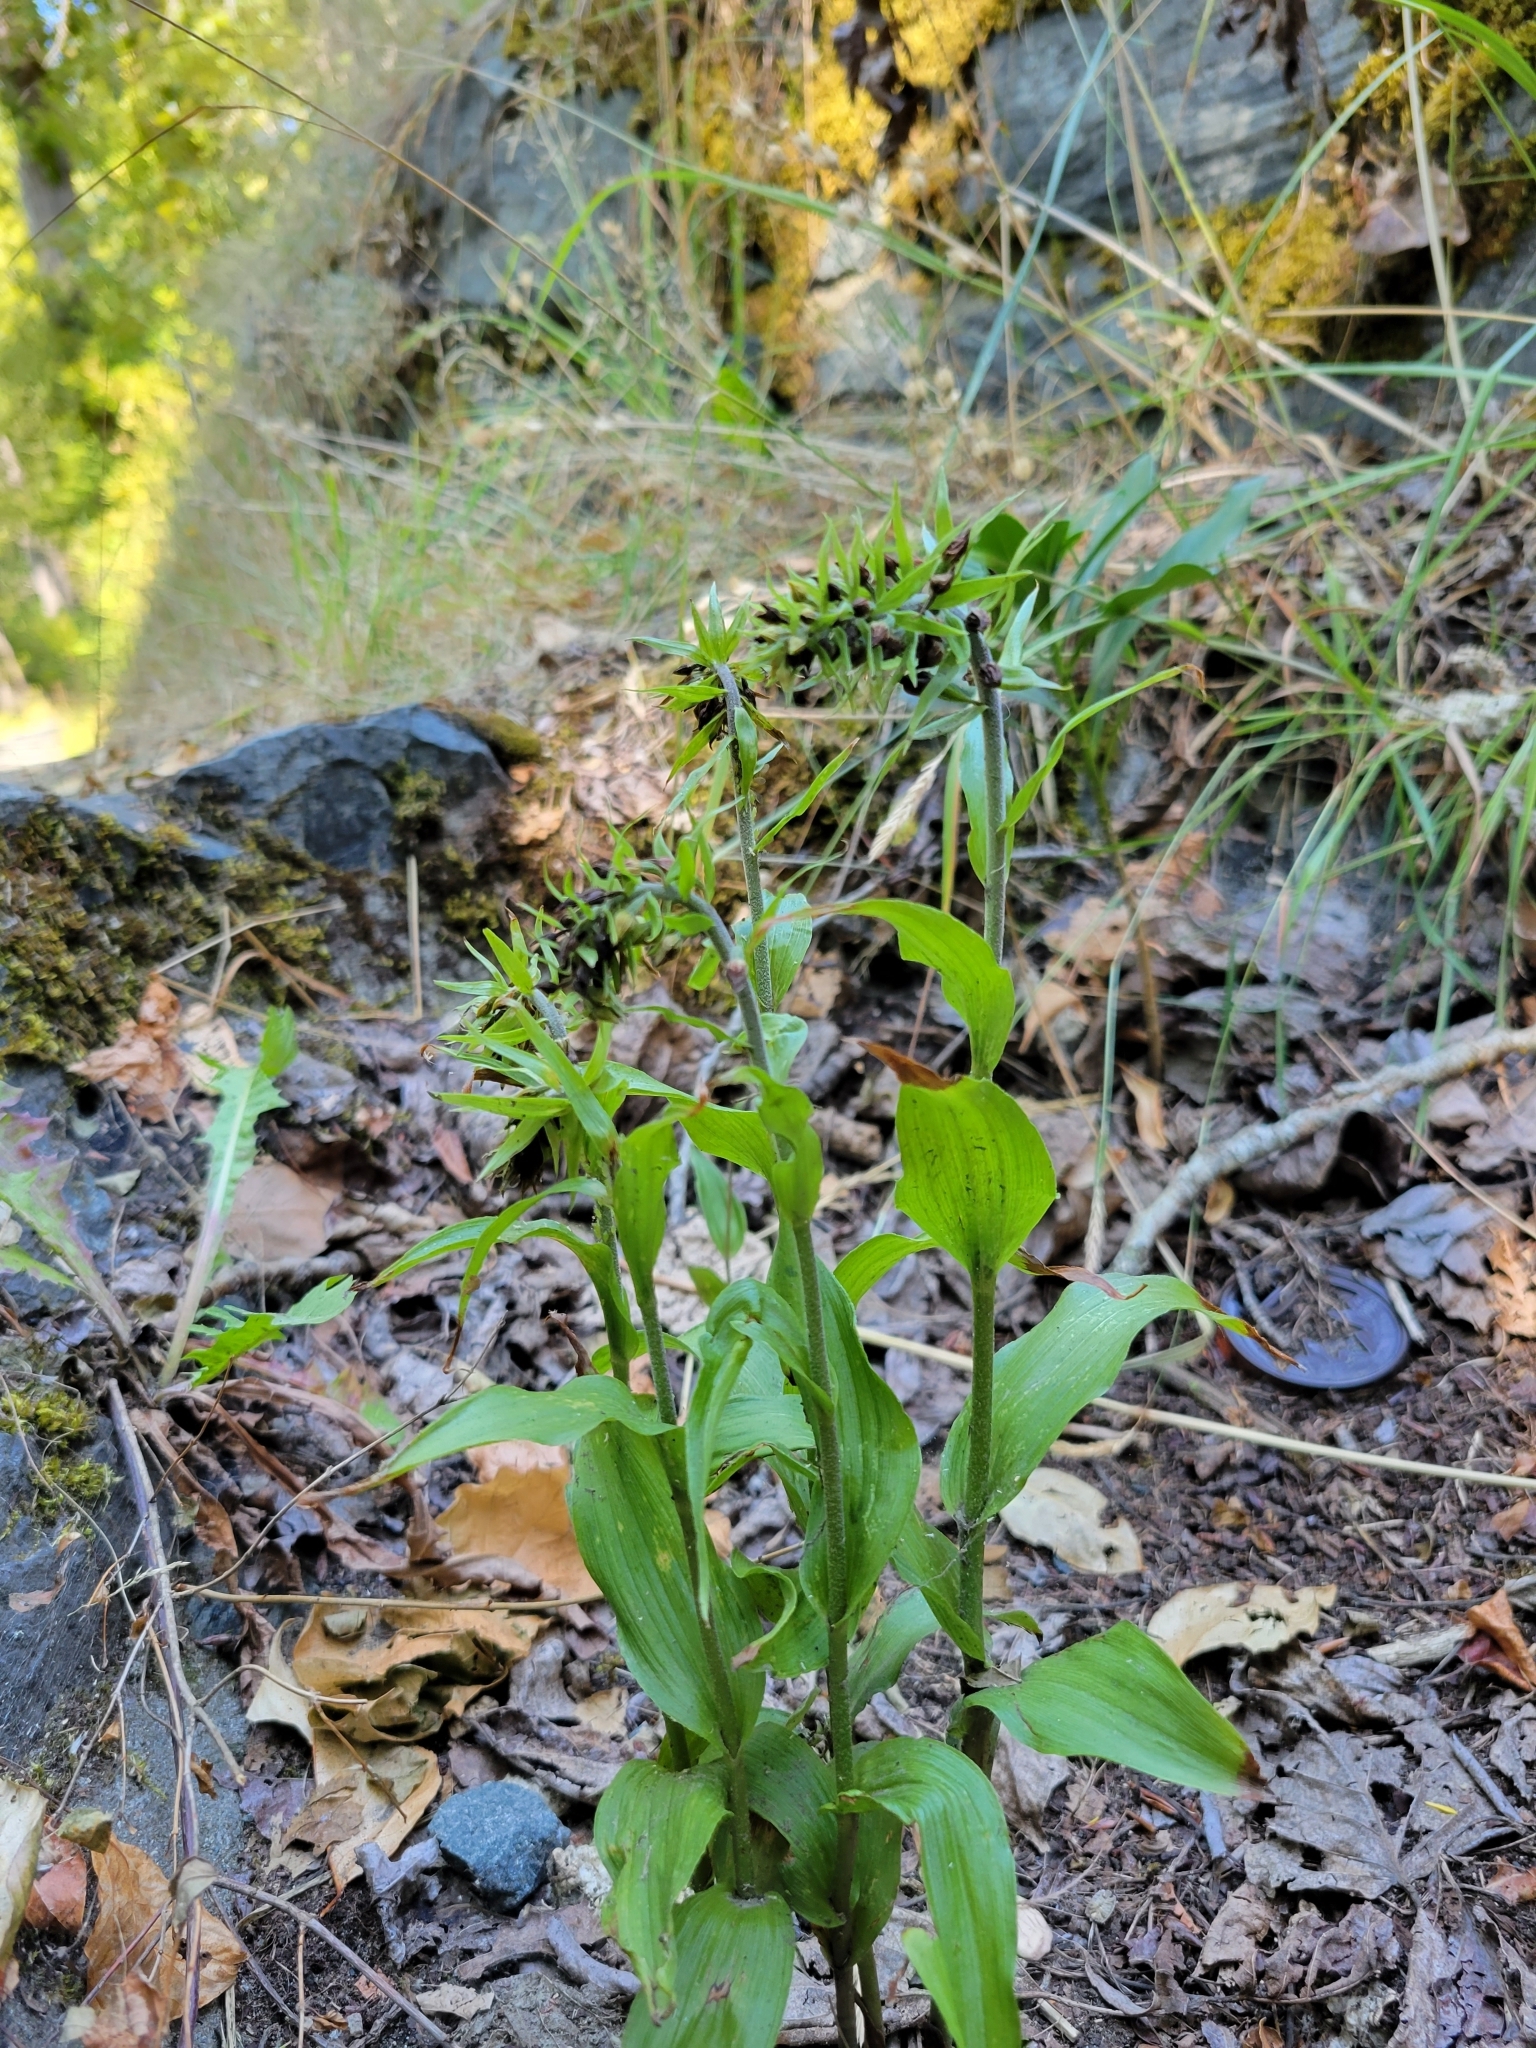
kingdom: Plantae
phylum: Tracheophyta
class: Liliopsida
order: Asparagales
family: Orchidaceae
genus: Epipactis
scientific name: Epipactis helleborine
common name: Broad-leaved helleborine
